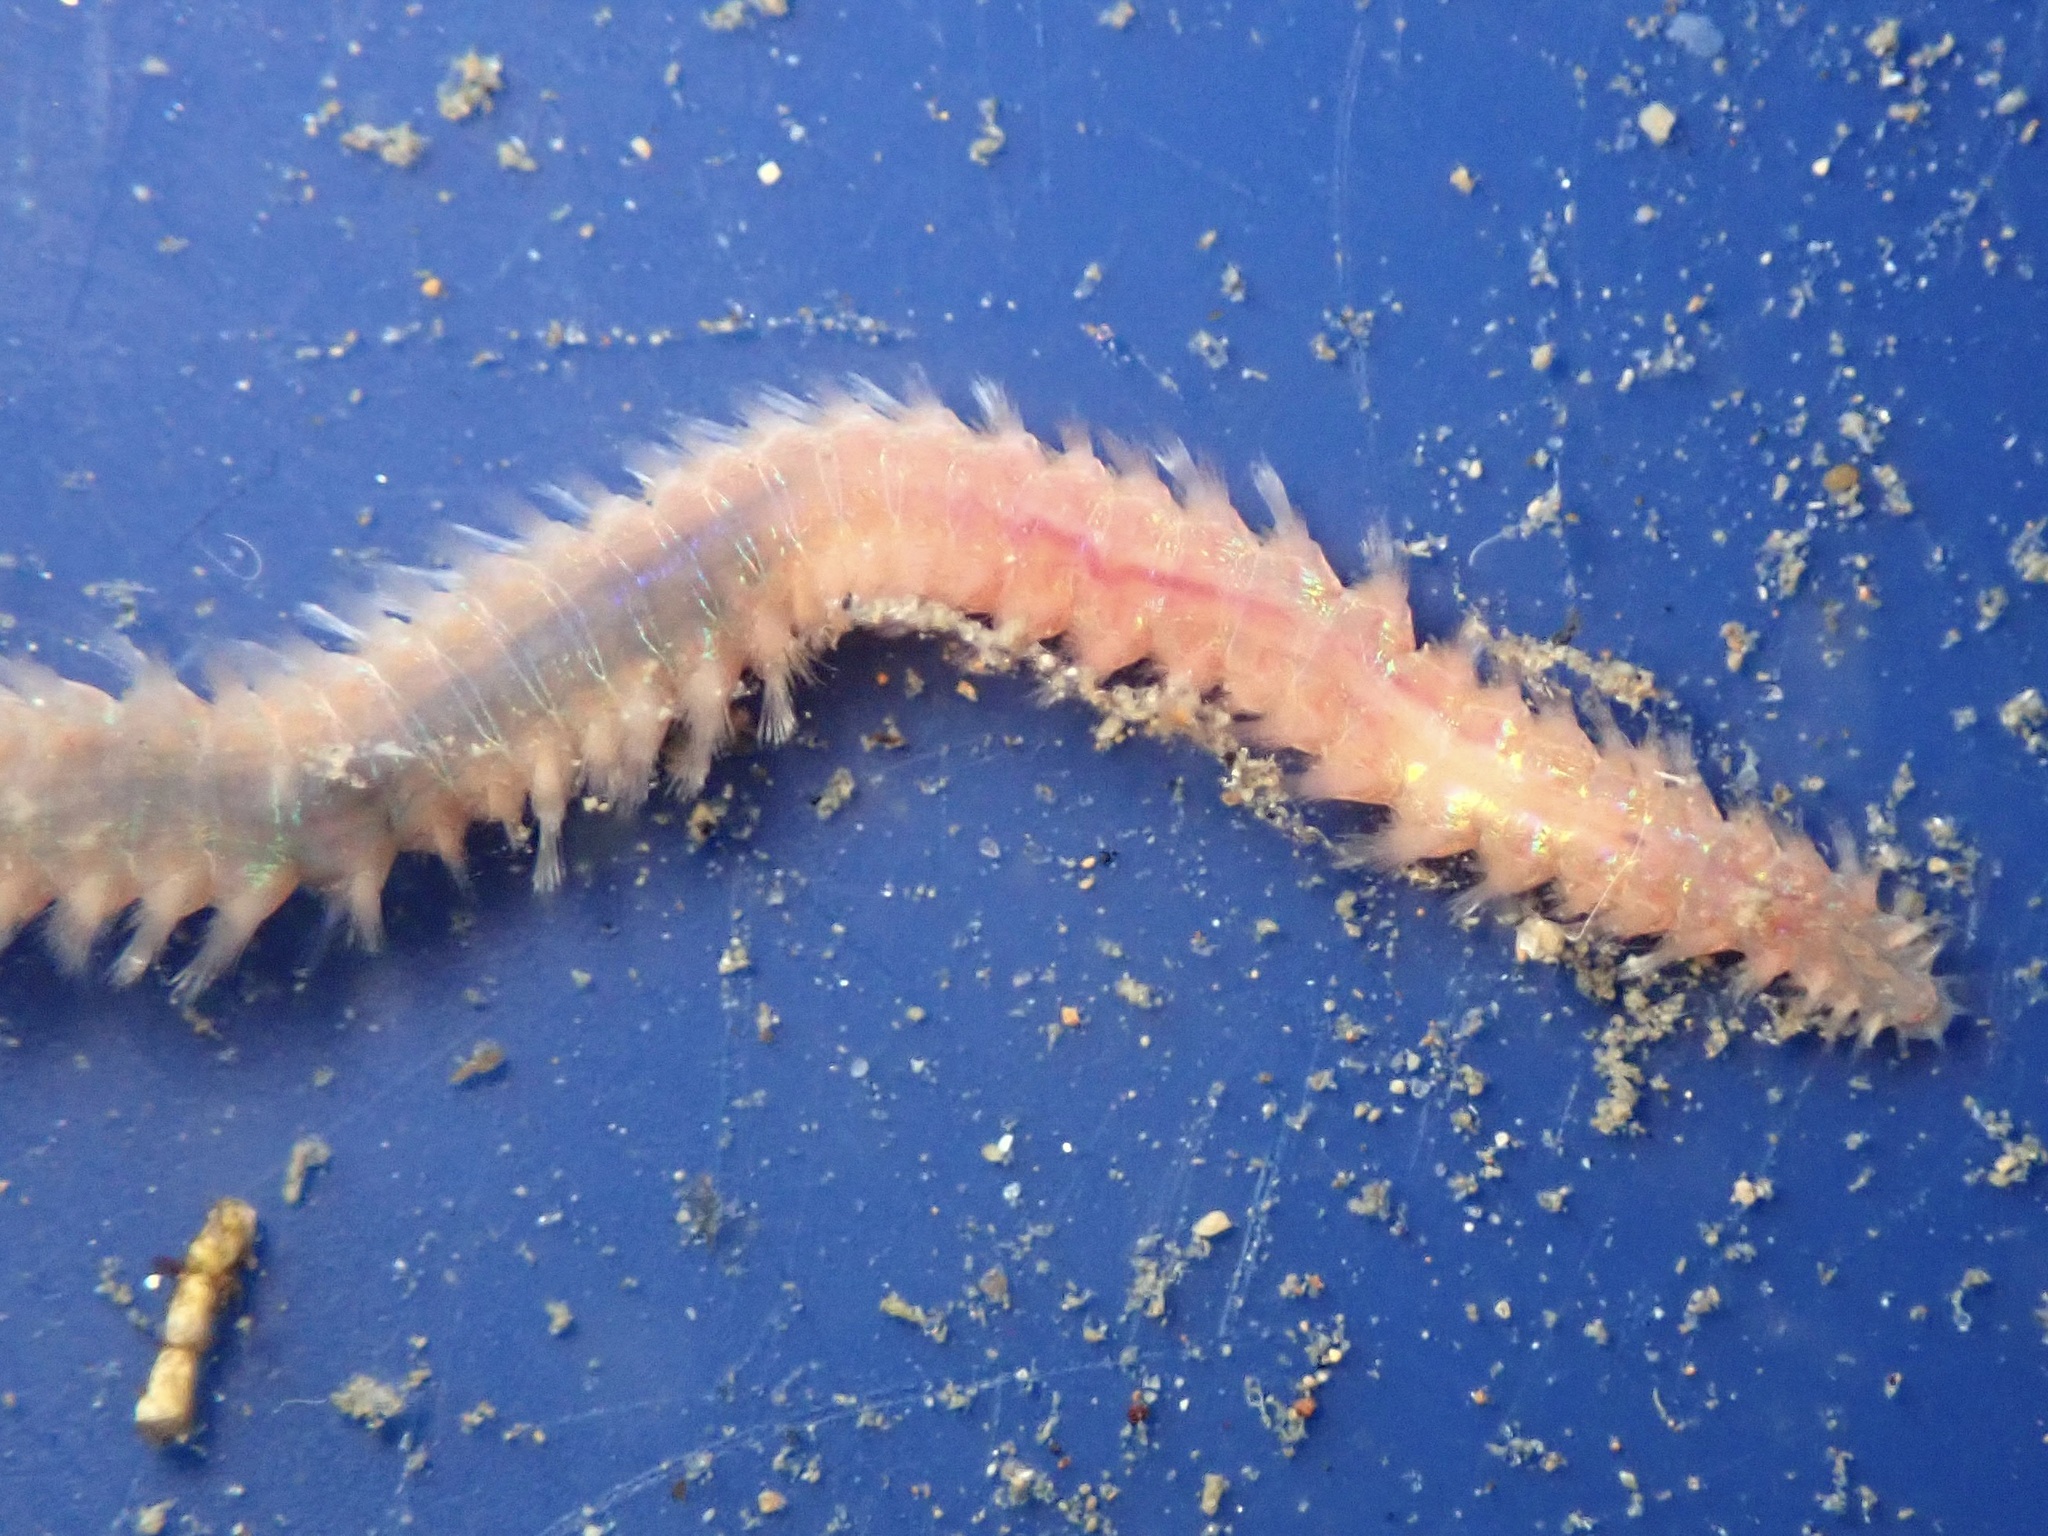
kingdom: Animalia
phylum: Annelida
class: Polychaeta
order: Amphinomida
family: Amphinomidae
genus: Pareurythoe
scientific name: Pareurythoe californica
